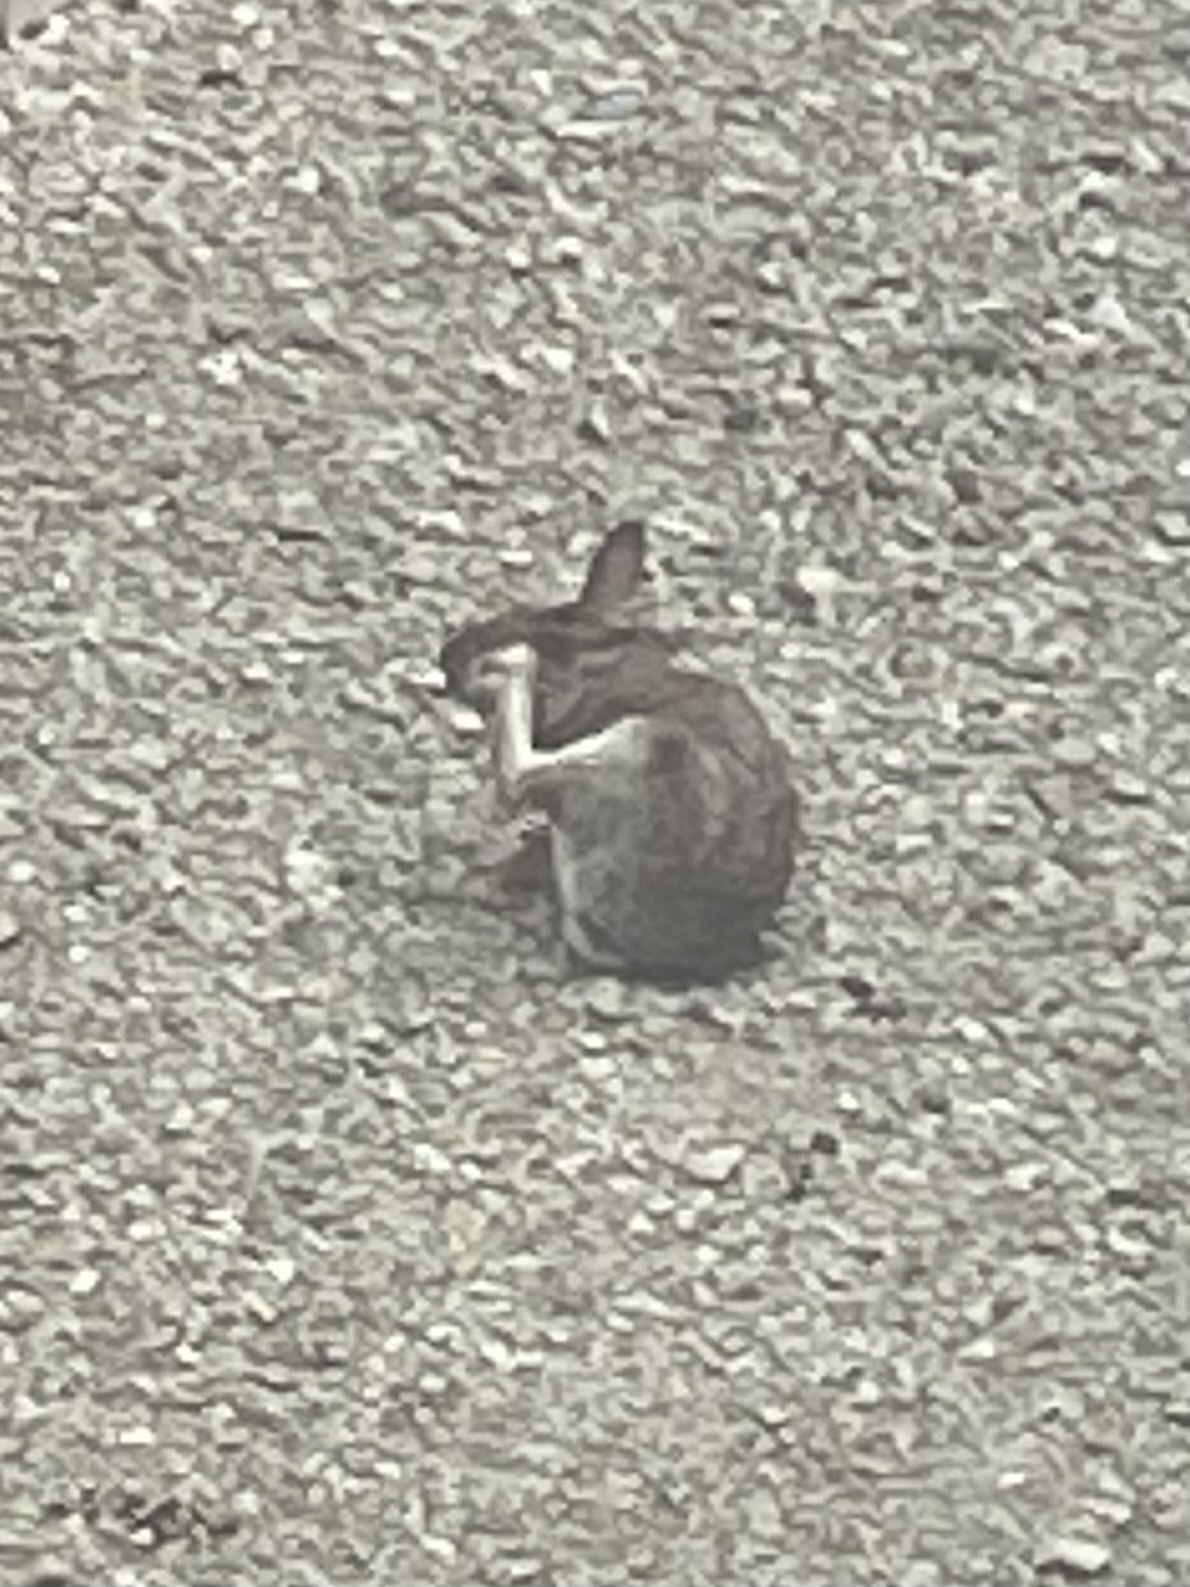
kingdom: Animalia
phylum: Chordata
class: Mammalia
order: Lagomorpha
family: Leporidae
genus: Sylvilagus
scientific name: Sylvilagus floridanus
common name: Eastern cottontail
